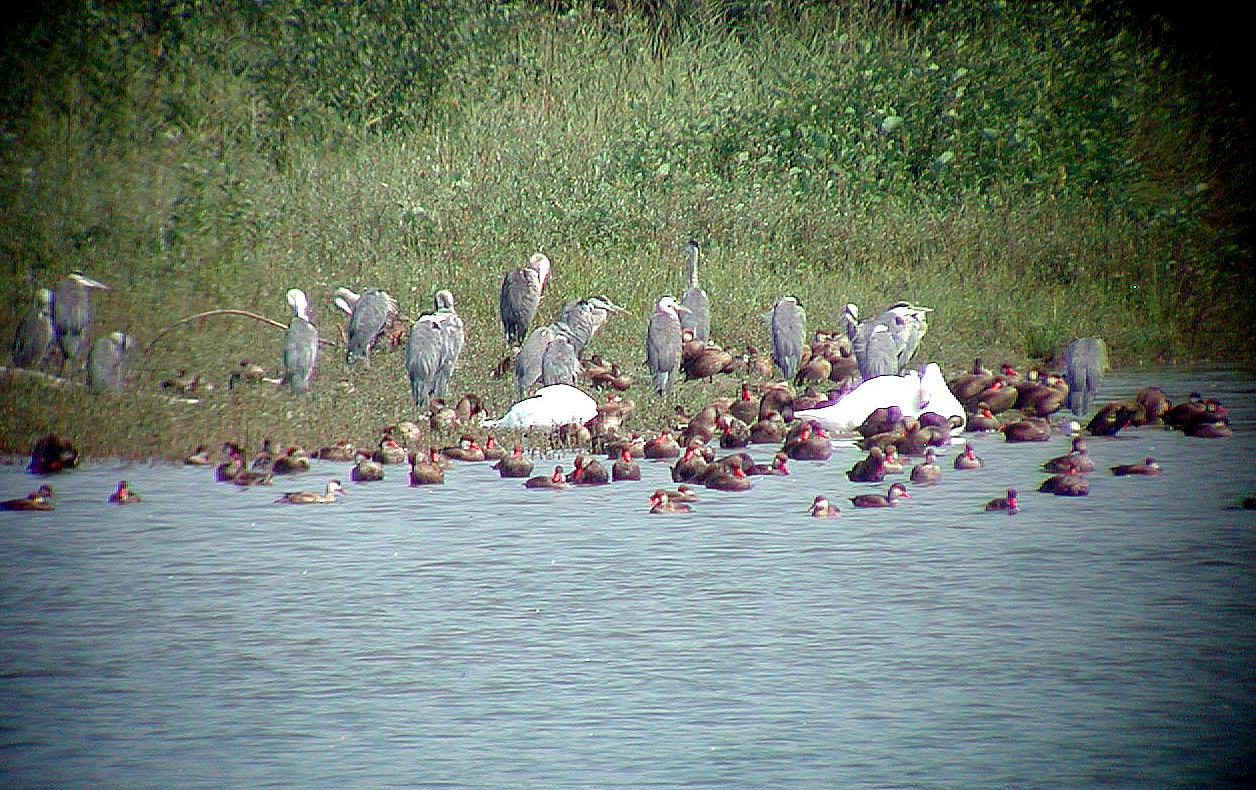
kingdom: Animalia
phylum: Chordata
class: Aves
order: Pelecaniformes
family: Ardeidae
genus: Ardea
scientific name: Ardea cinerea
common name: Grey heron
